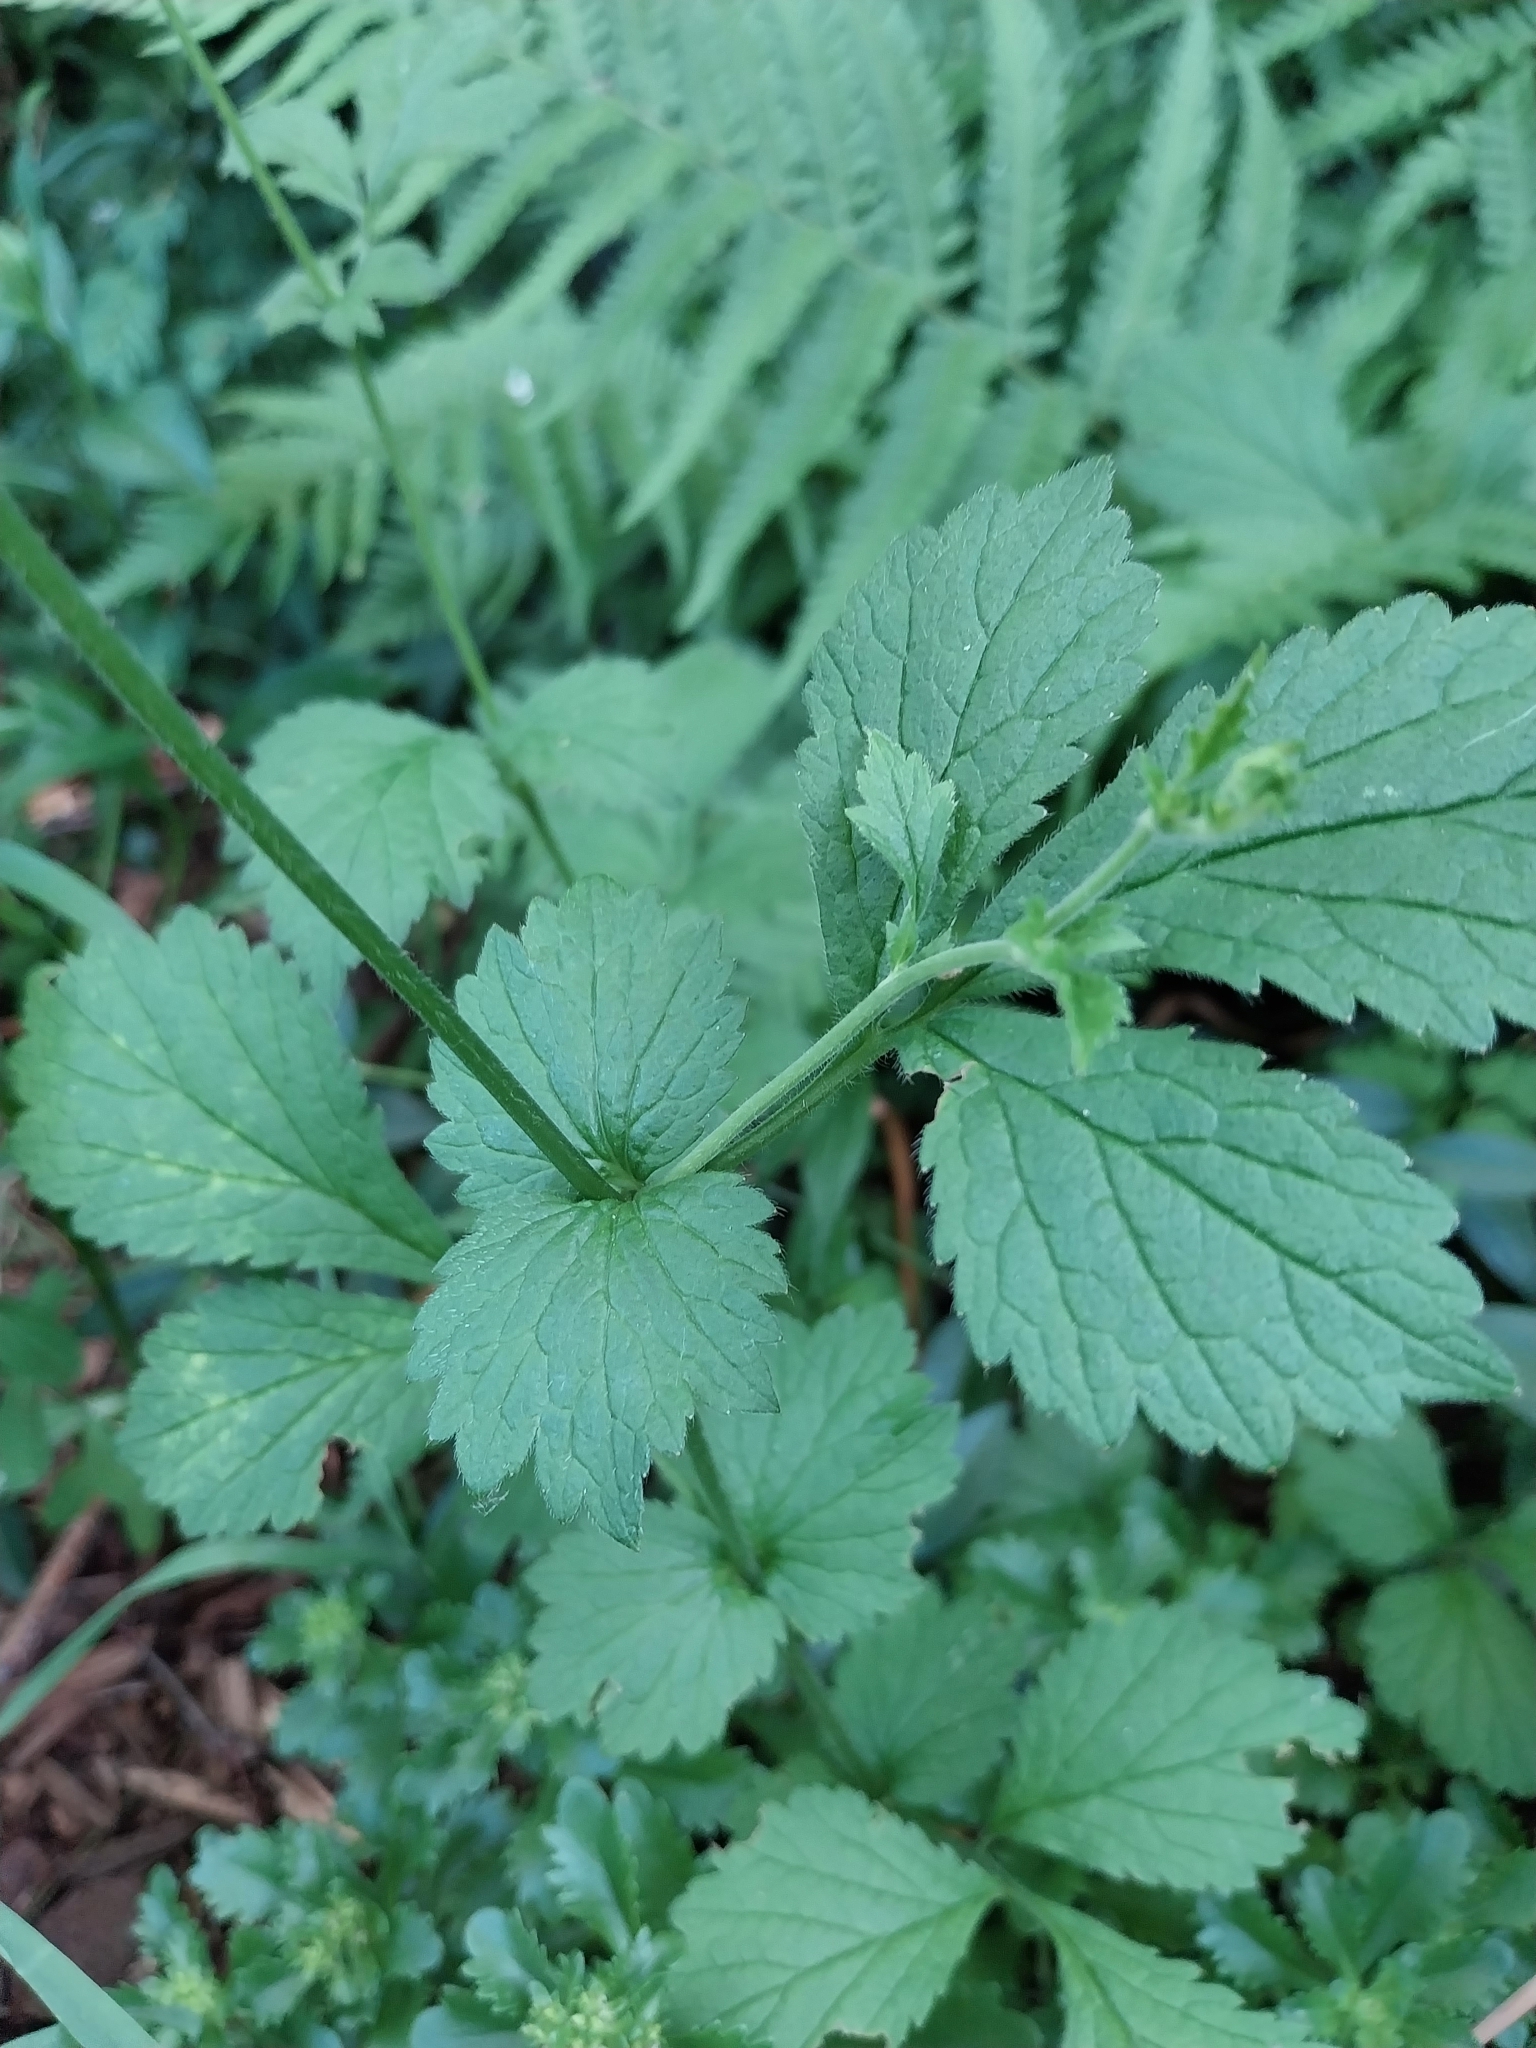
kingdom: Plantae
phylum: Tracheophyta
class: Magnoliopsida
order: Rosales
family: Rosaceae
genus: Geum
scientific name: Geum urbanum
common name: Wood avens
